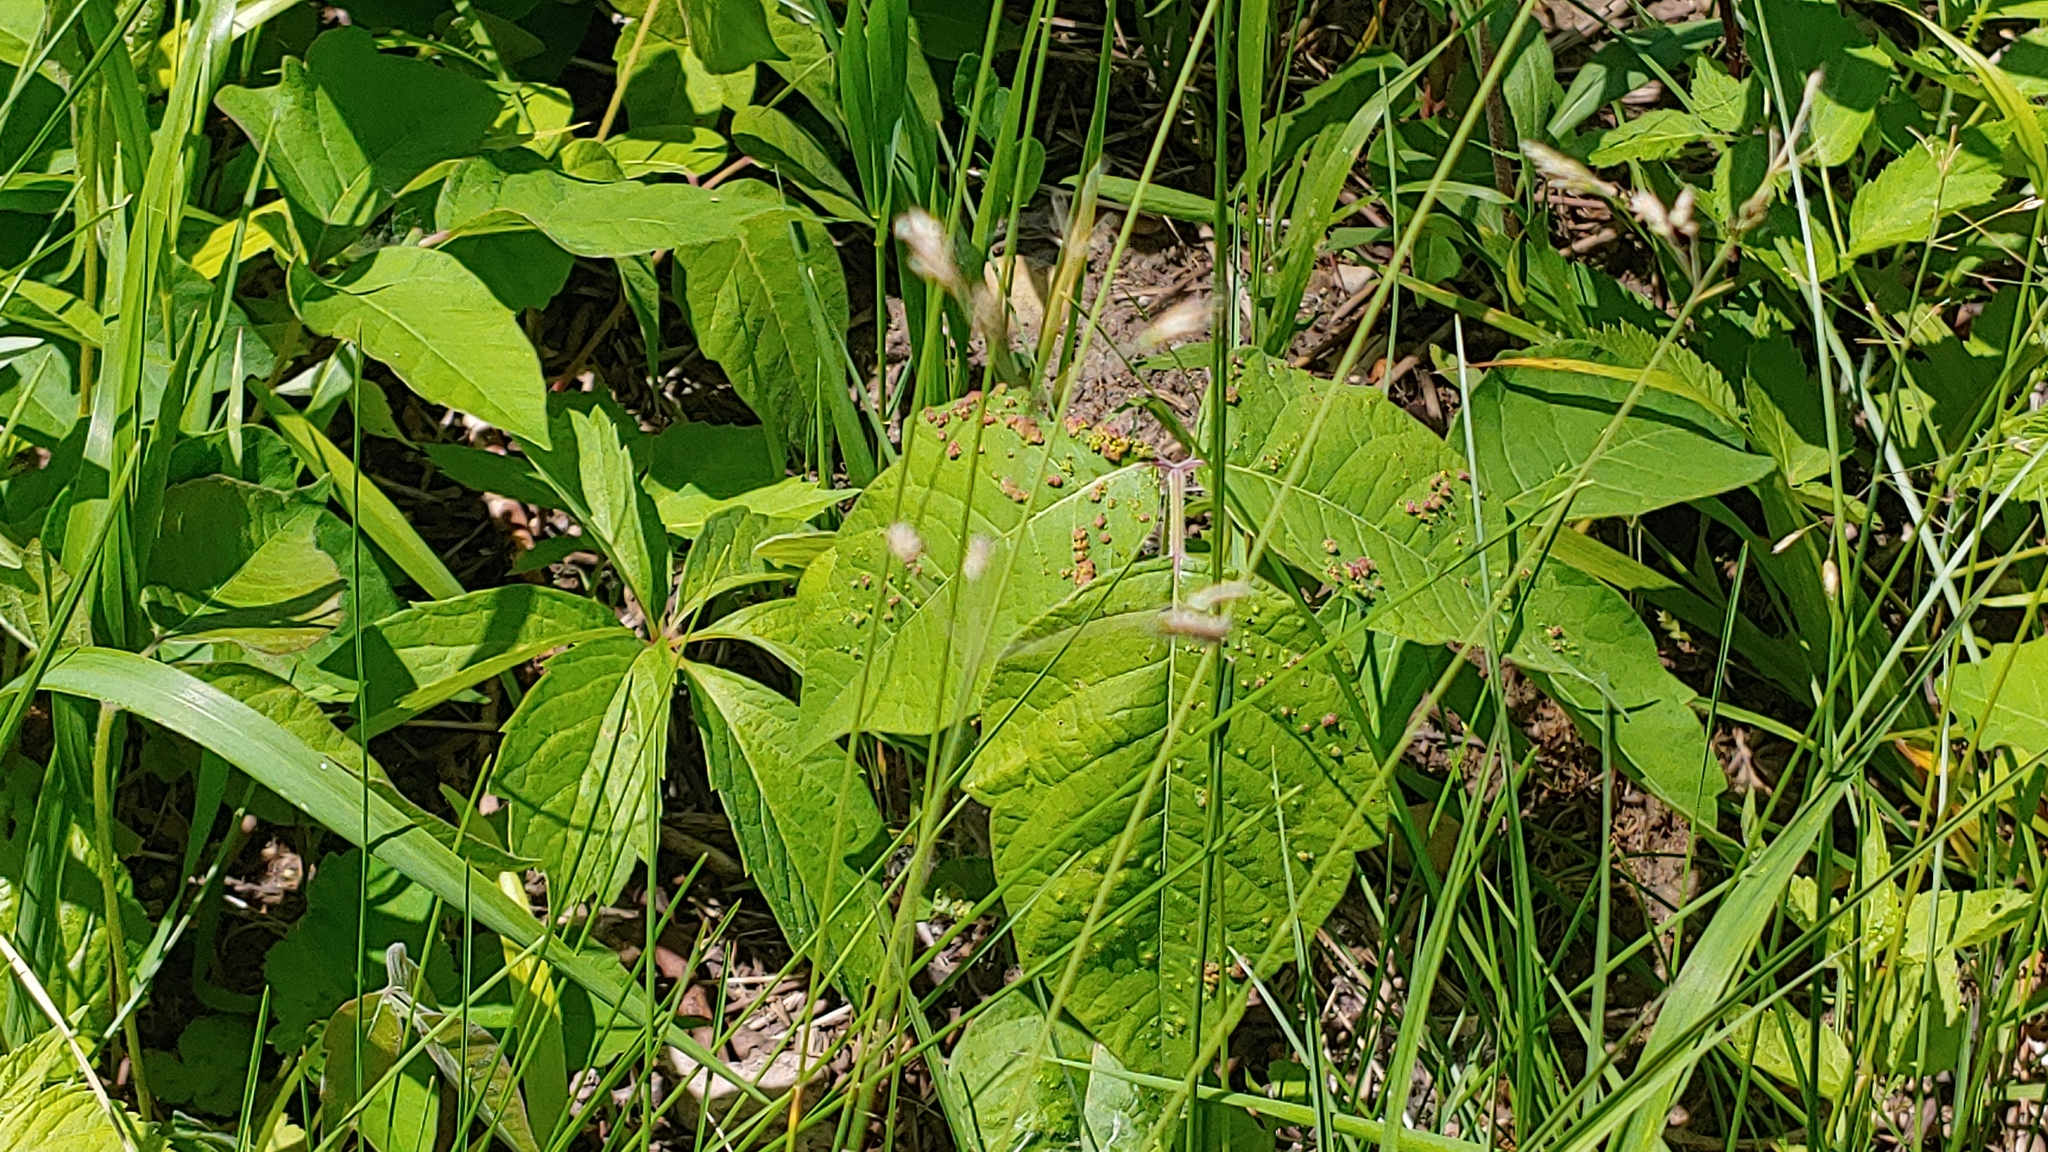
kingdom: Animalia
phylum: Arthropoda
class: Arachnida
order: Trombidiformes
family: Eriophyidae
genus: Aculops
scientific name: Aculops
